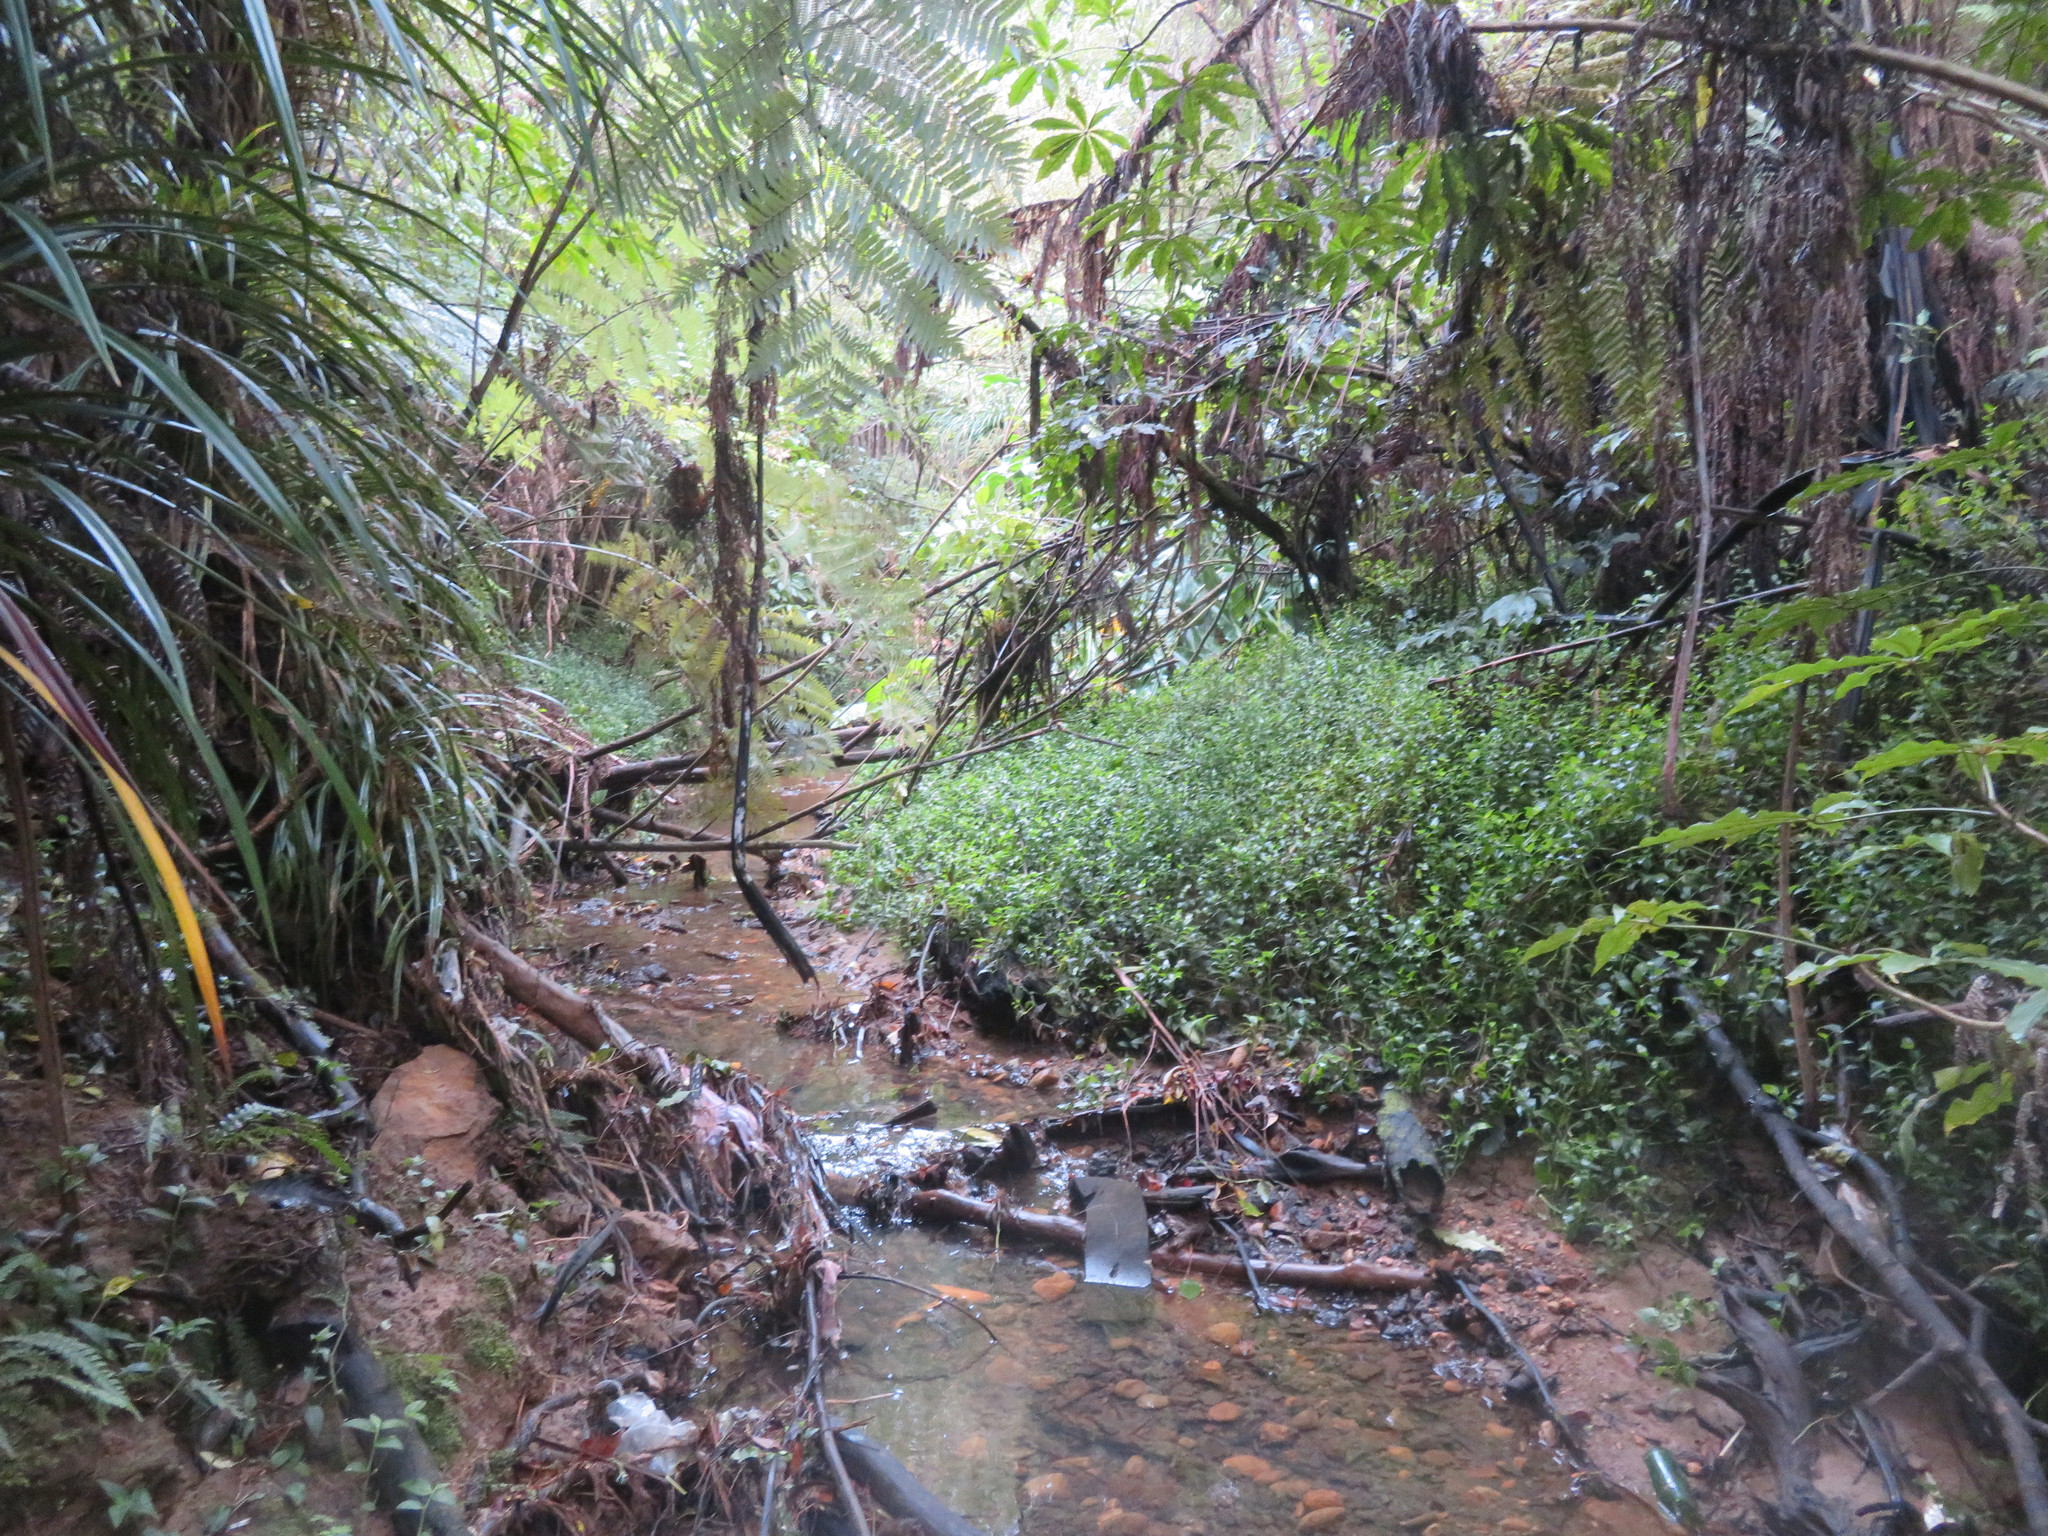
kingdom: Plantae
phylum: Tracheophyta
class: Liliopsida
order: Commelinales
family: Commelinaceae
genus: Tradescantia
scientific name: Tradescantia fluminensis
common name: Wandering-jew
